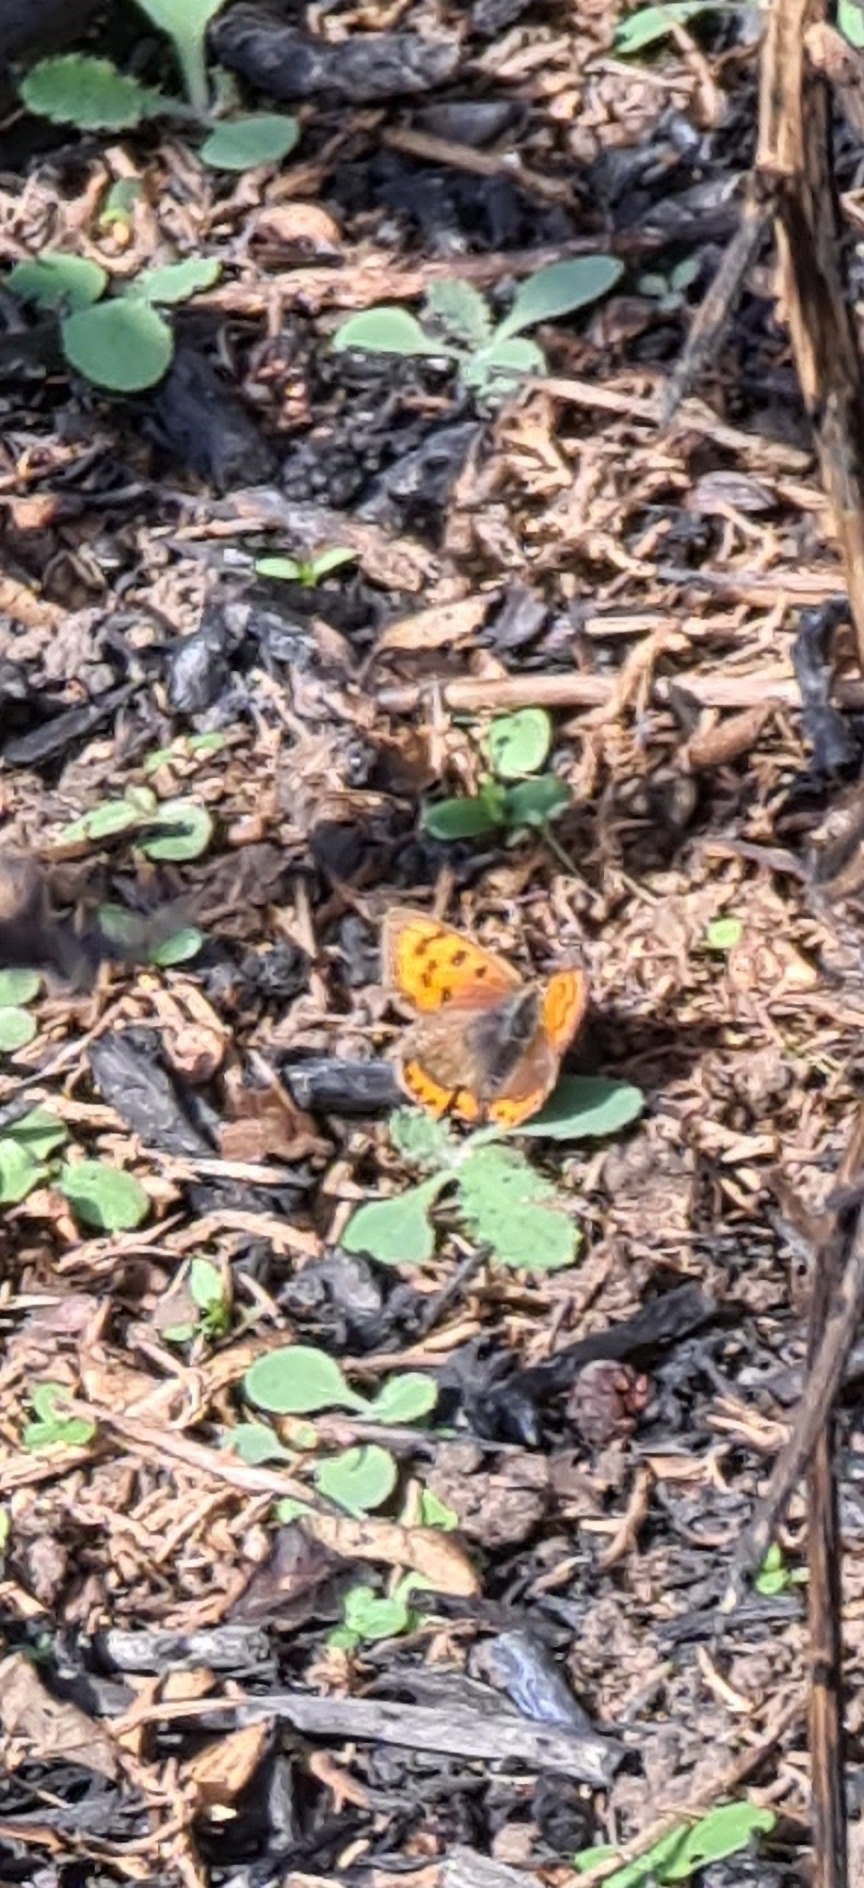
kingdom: Animalia
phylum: Arthropoda
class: Insecta
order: Lepidoptera
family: Lycaenidae
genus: Lycaena
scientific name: Lycaena phlaeas
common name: Small copper
